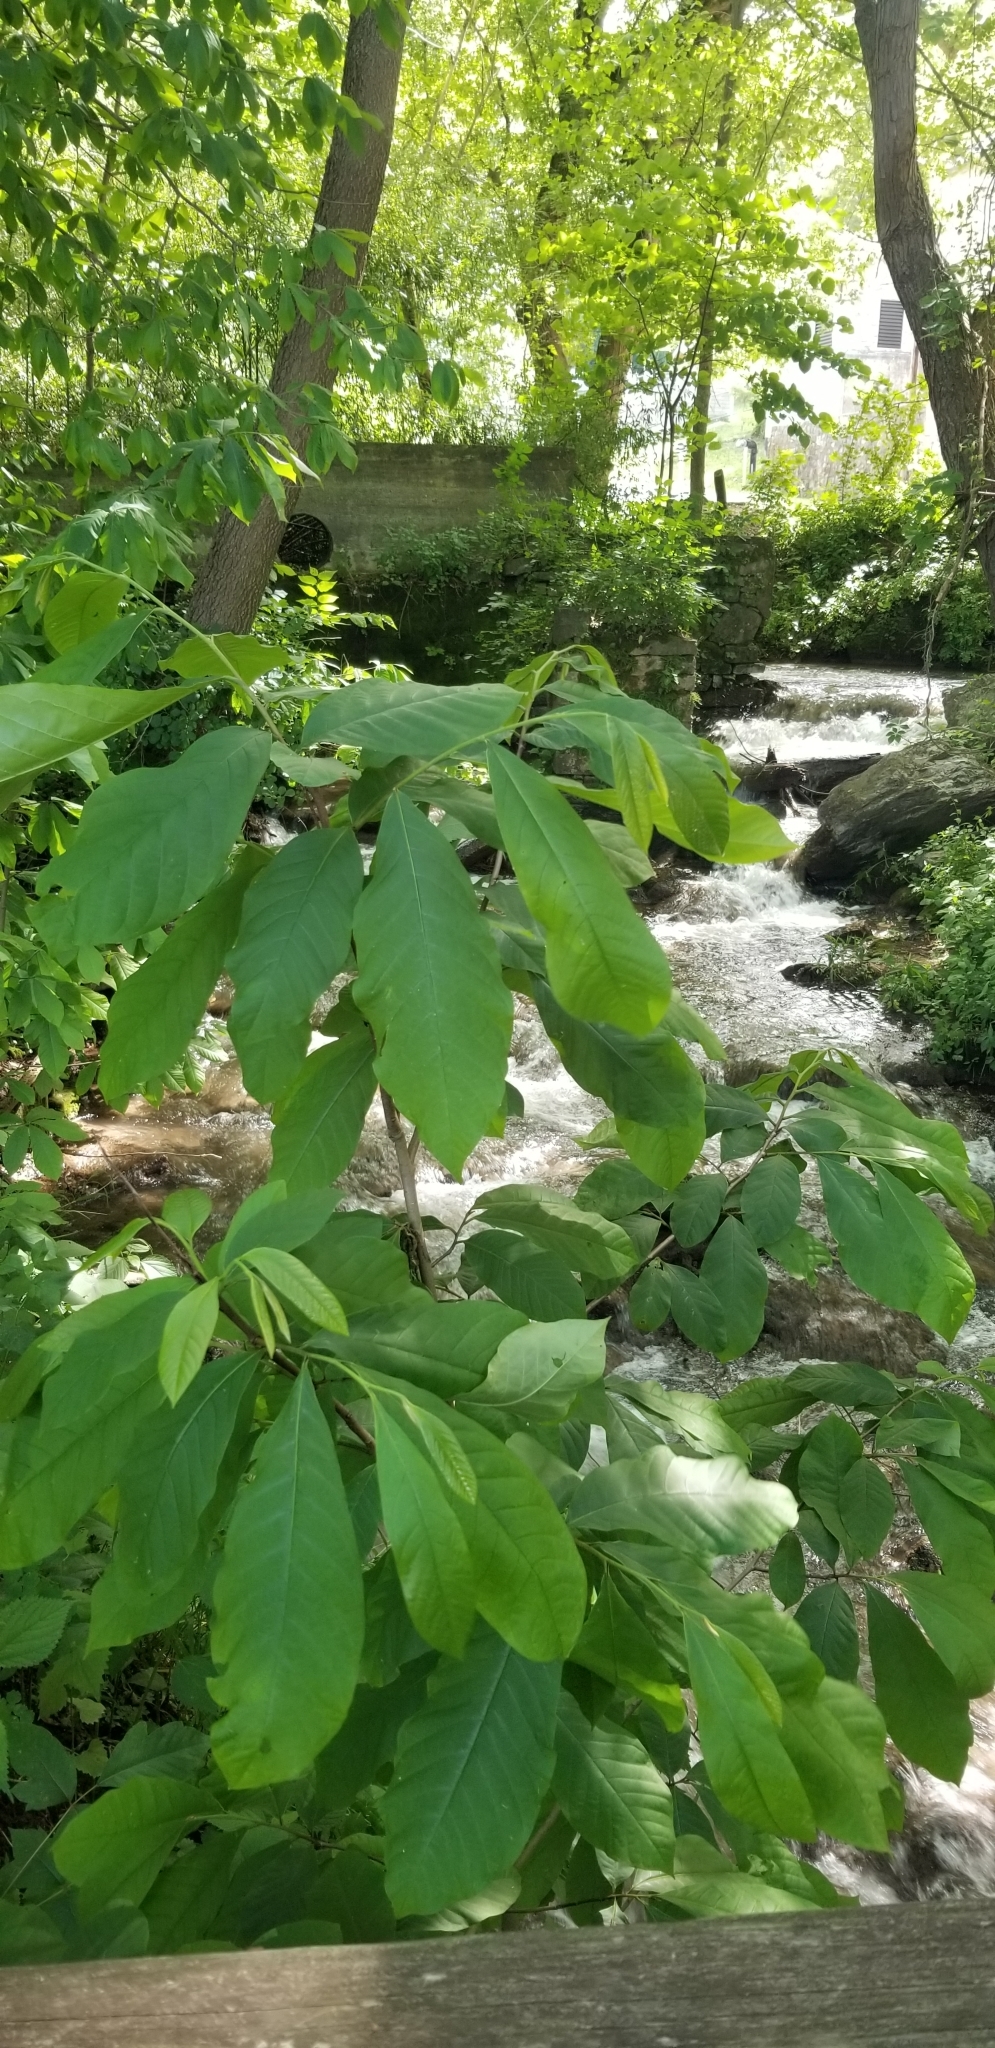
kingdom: Plantae
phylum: Tracheophyta
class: Magnoliopsida
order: Magnoliales
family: Annonaceae
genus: Asimina
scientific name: Asimina triloba
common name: Dog-banana
